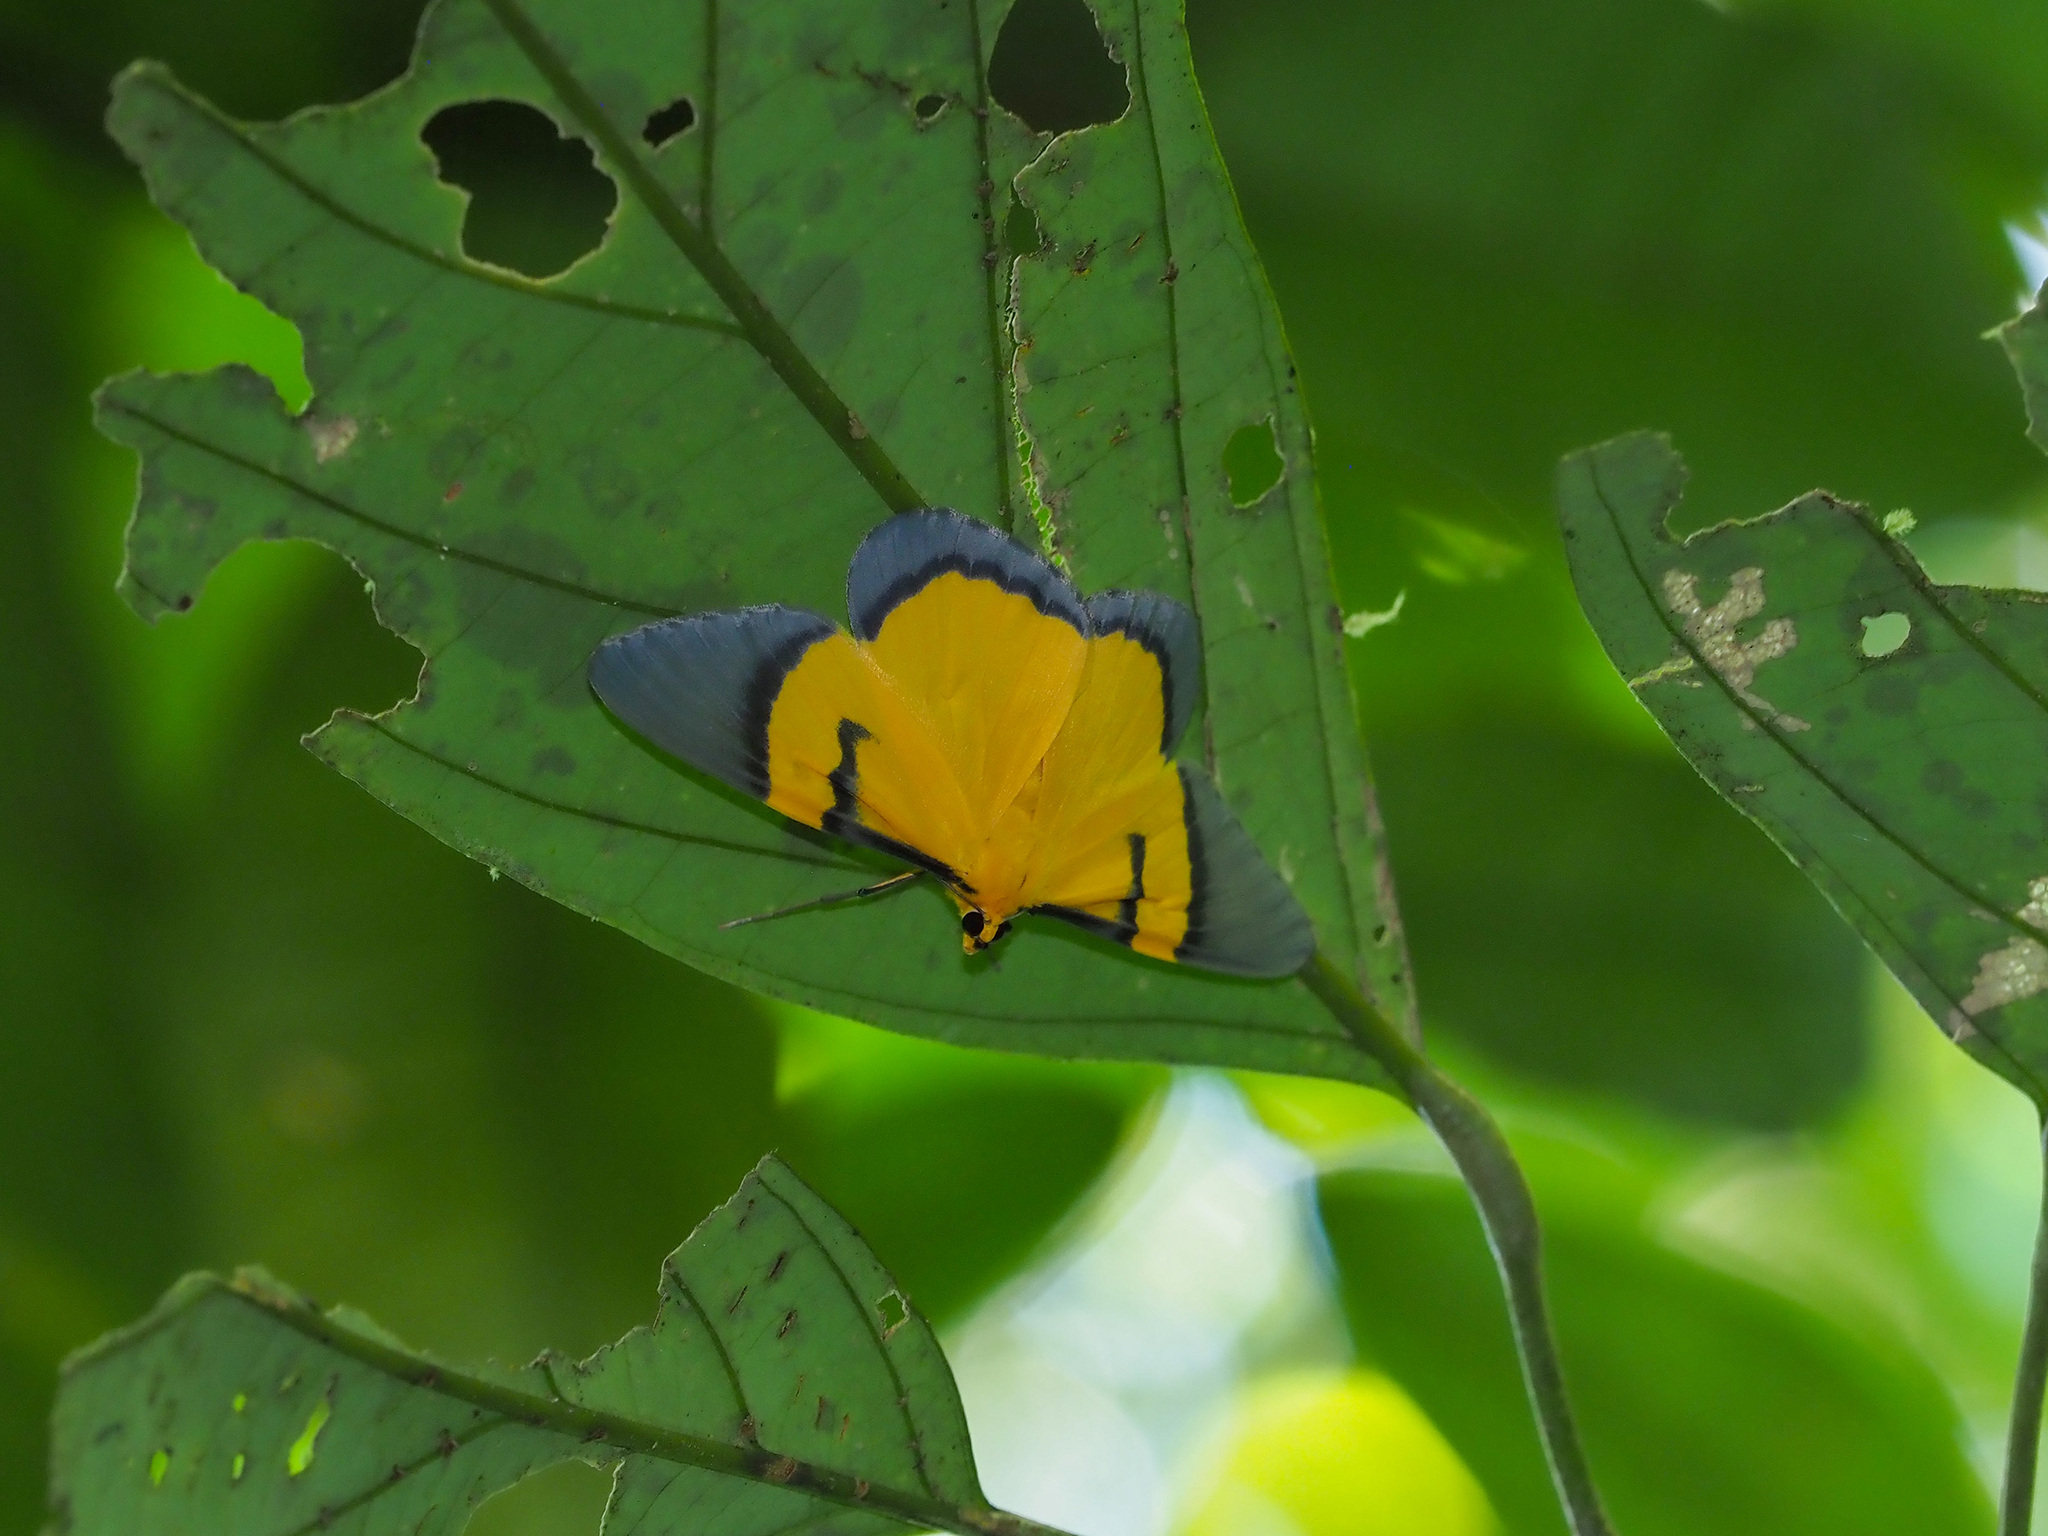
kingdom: Animalia
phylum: Arthropoda
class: Insecta
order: Lepidoptera
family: Geometridae
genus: Celerena
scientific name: Celerena signata
